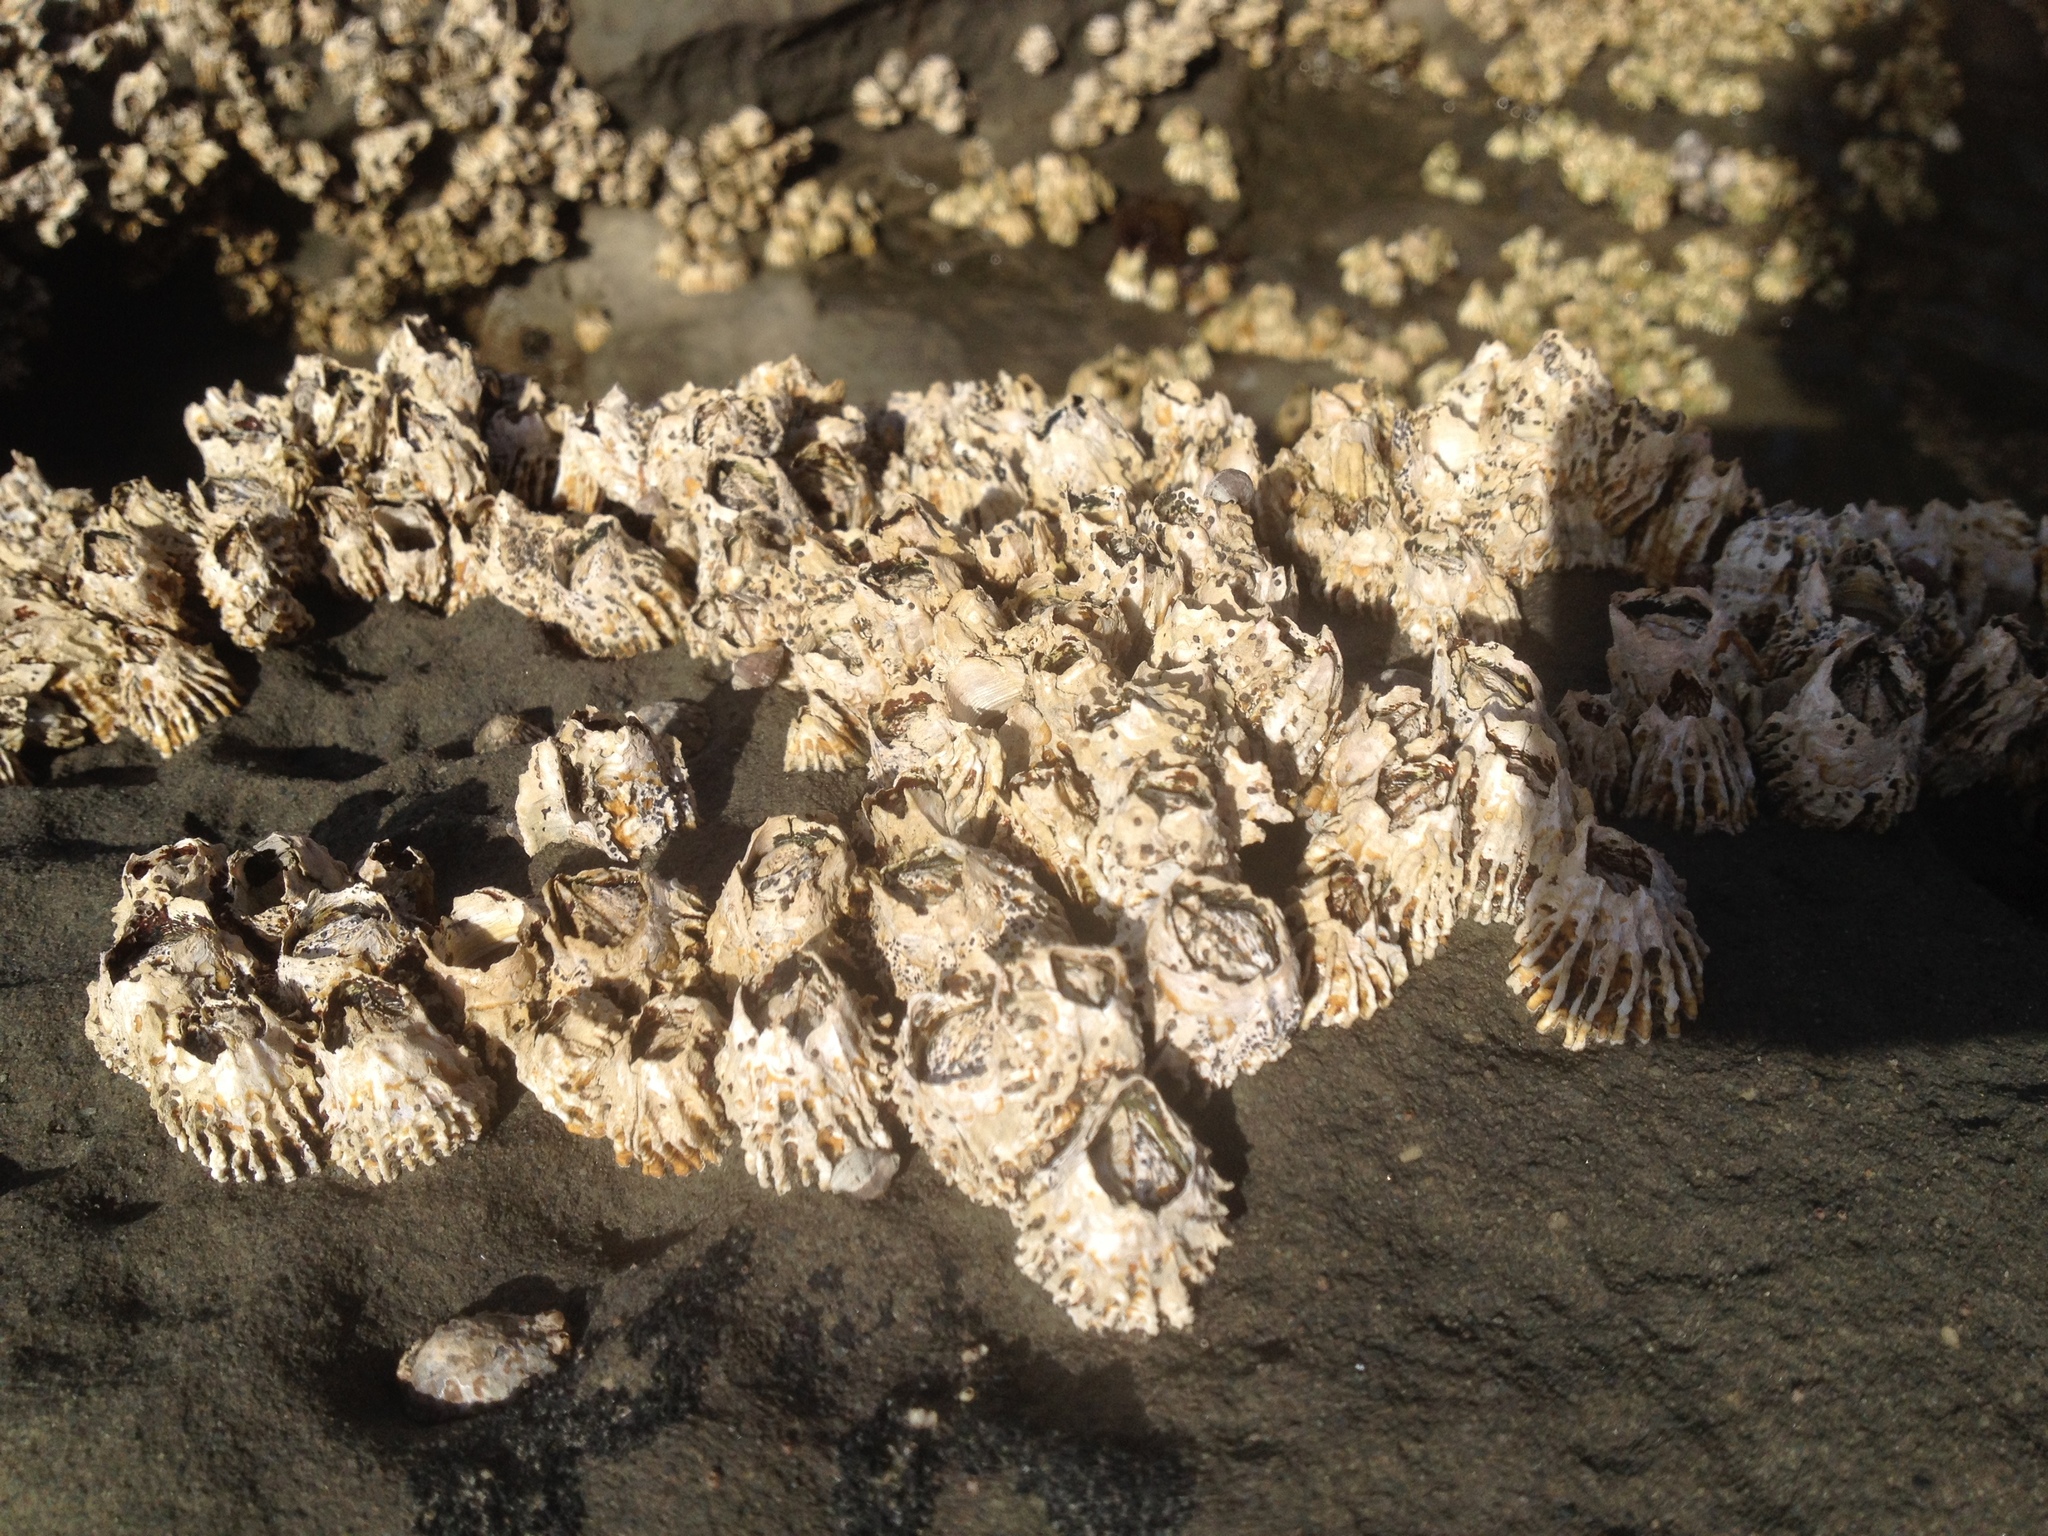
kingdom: Animalia
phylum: Arthropoda
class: Maxillopoda
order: Sessilia
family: Tetraclitidae
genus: Epopella
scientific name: Epopella plicata
